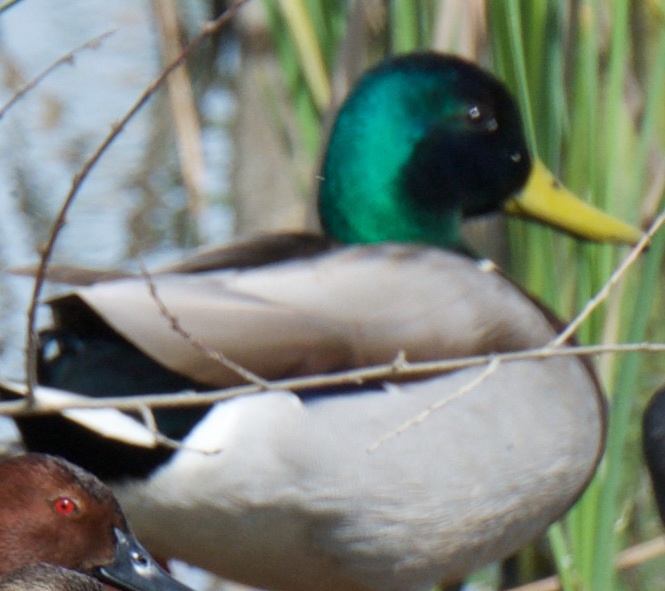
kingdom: Animalia
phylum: Chordata
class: Aves
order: Anseriformes
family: Anatidae
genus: Anas
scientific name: Anas platyrhynchos
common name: Mallard
